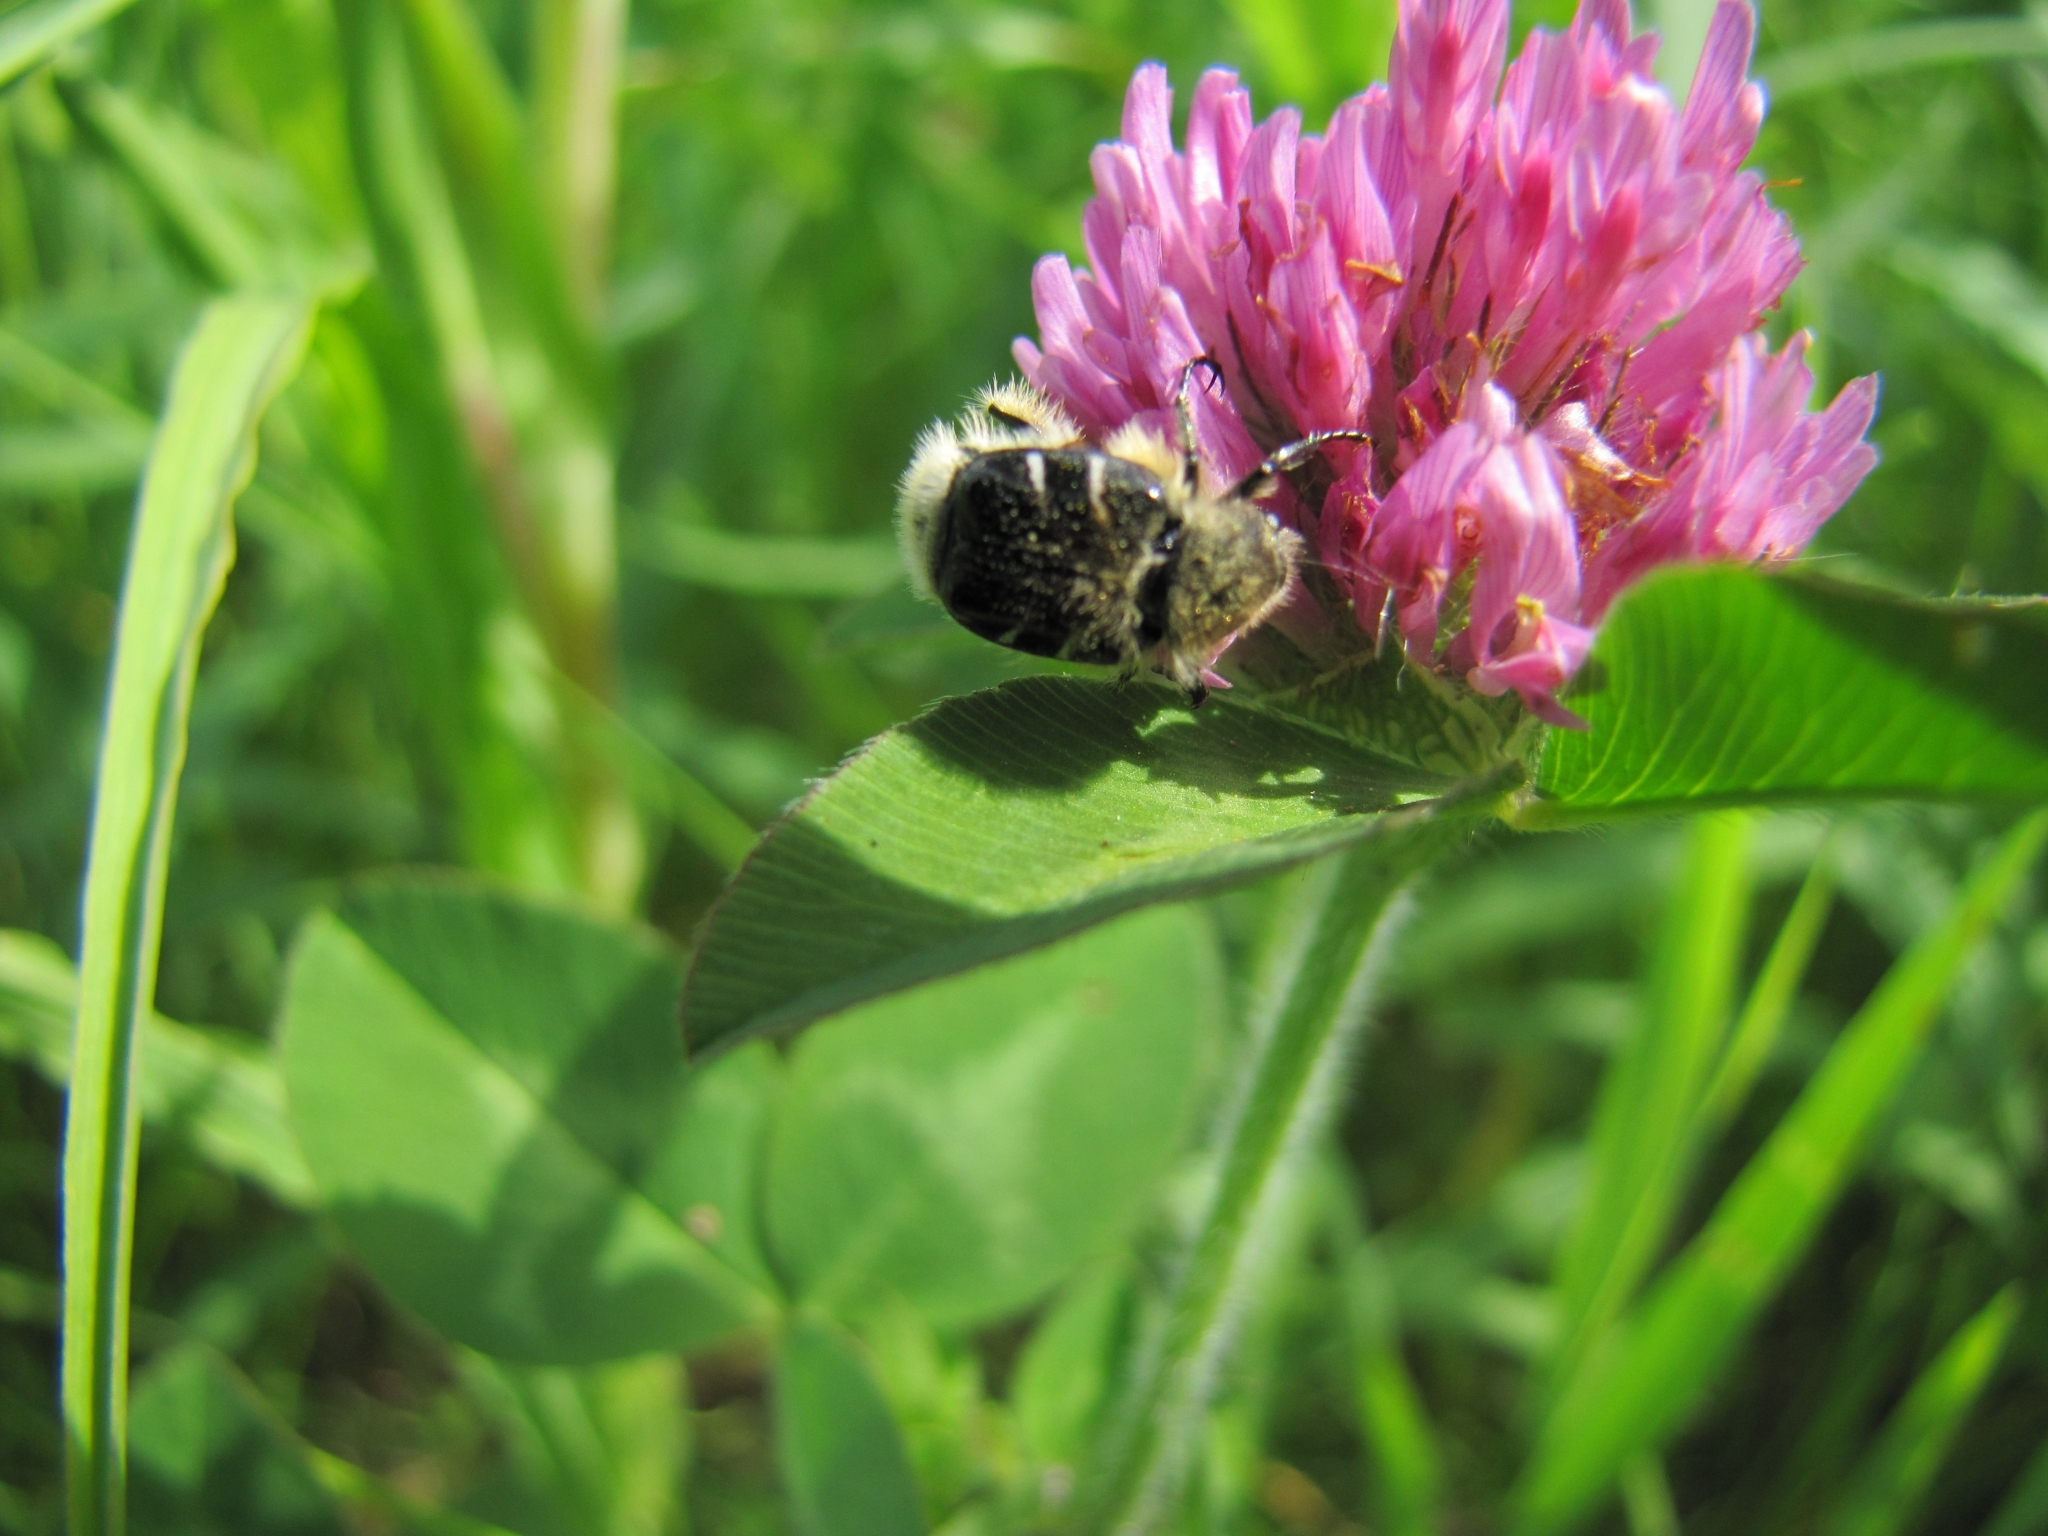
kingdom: Animalia
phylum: Arthropoda
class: Insecta
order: Coleoptera
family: Scarabaeidae
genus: Trichiotinus
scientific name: Trichiotinus assimilis
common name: Bee-mimic beetle
